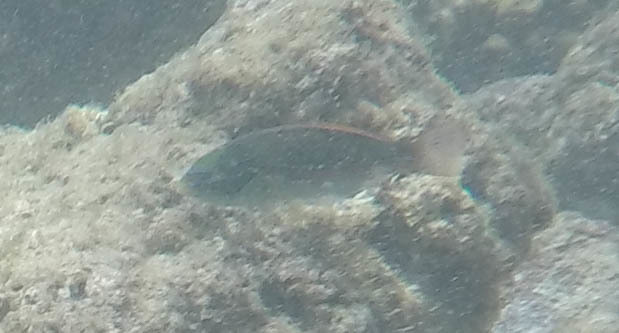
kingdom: Animalia
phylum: Chordata
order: Perciformes
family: Labridae
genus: Stethojulis
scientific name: Stethojulis balteata
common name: Belted wrasse
